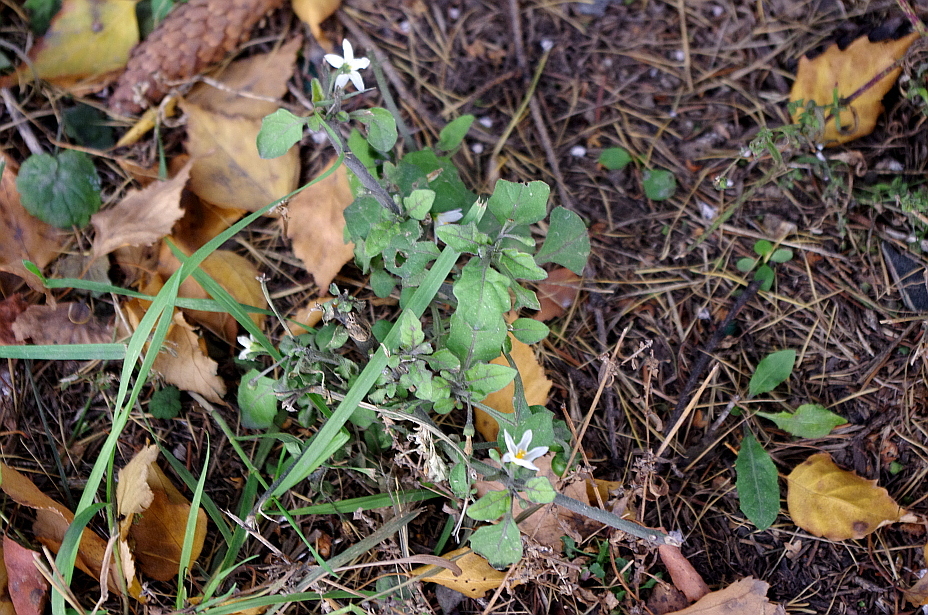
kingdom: Plantae
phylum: Tracheophyta
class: Magnoliopsida
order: Solanales
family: Solanaceae
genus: Solanum
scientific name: Solanum nigrum
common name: Black nightshade
